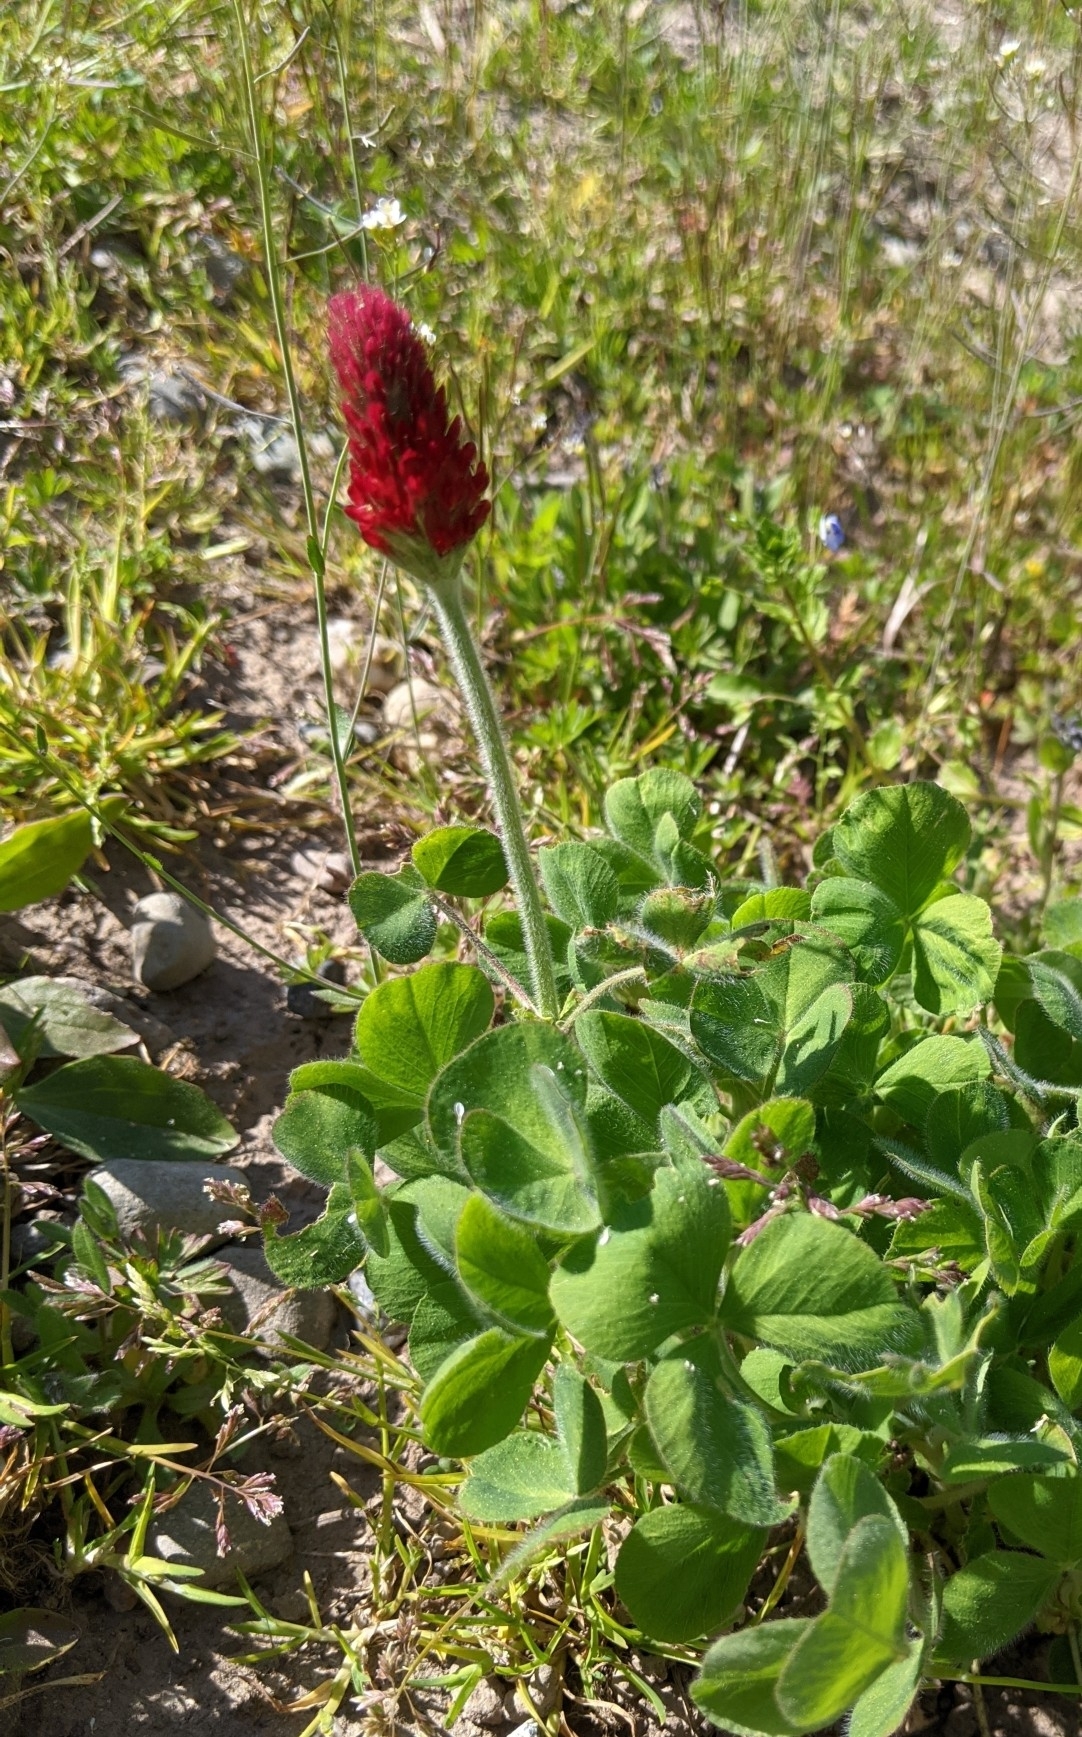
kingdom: Plantae
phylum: Tracheophyta
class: Magnoliopsida
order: Fabales
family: Fabaceae
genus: Trifolium
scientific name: Trifolium incarnatum
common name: Crimson clover
